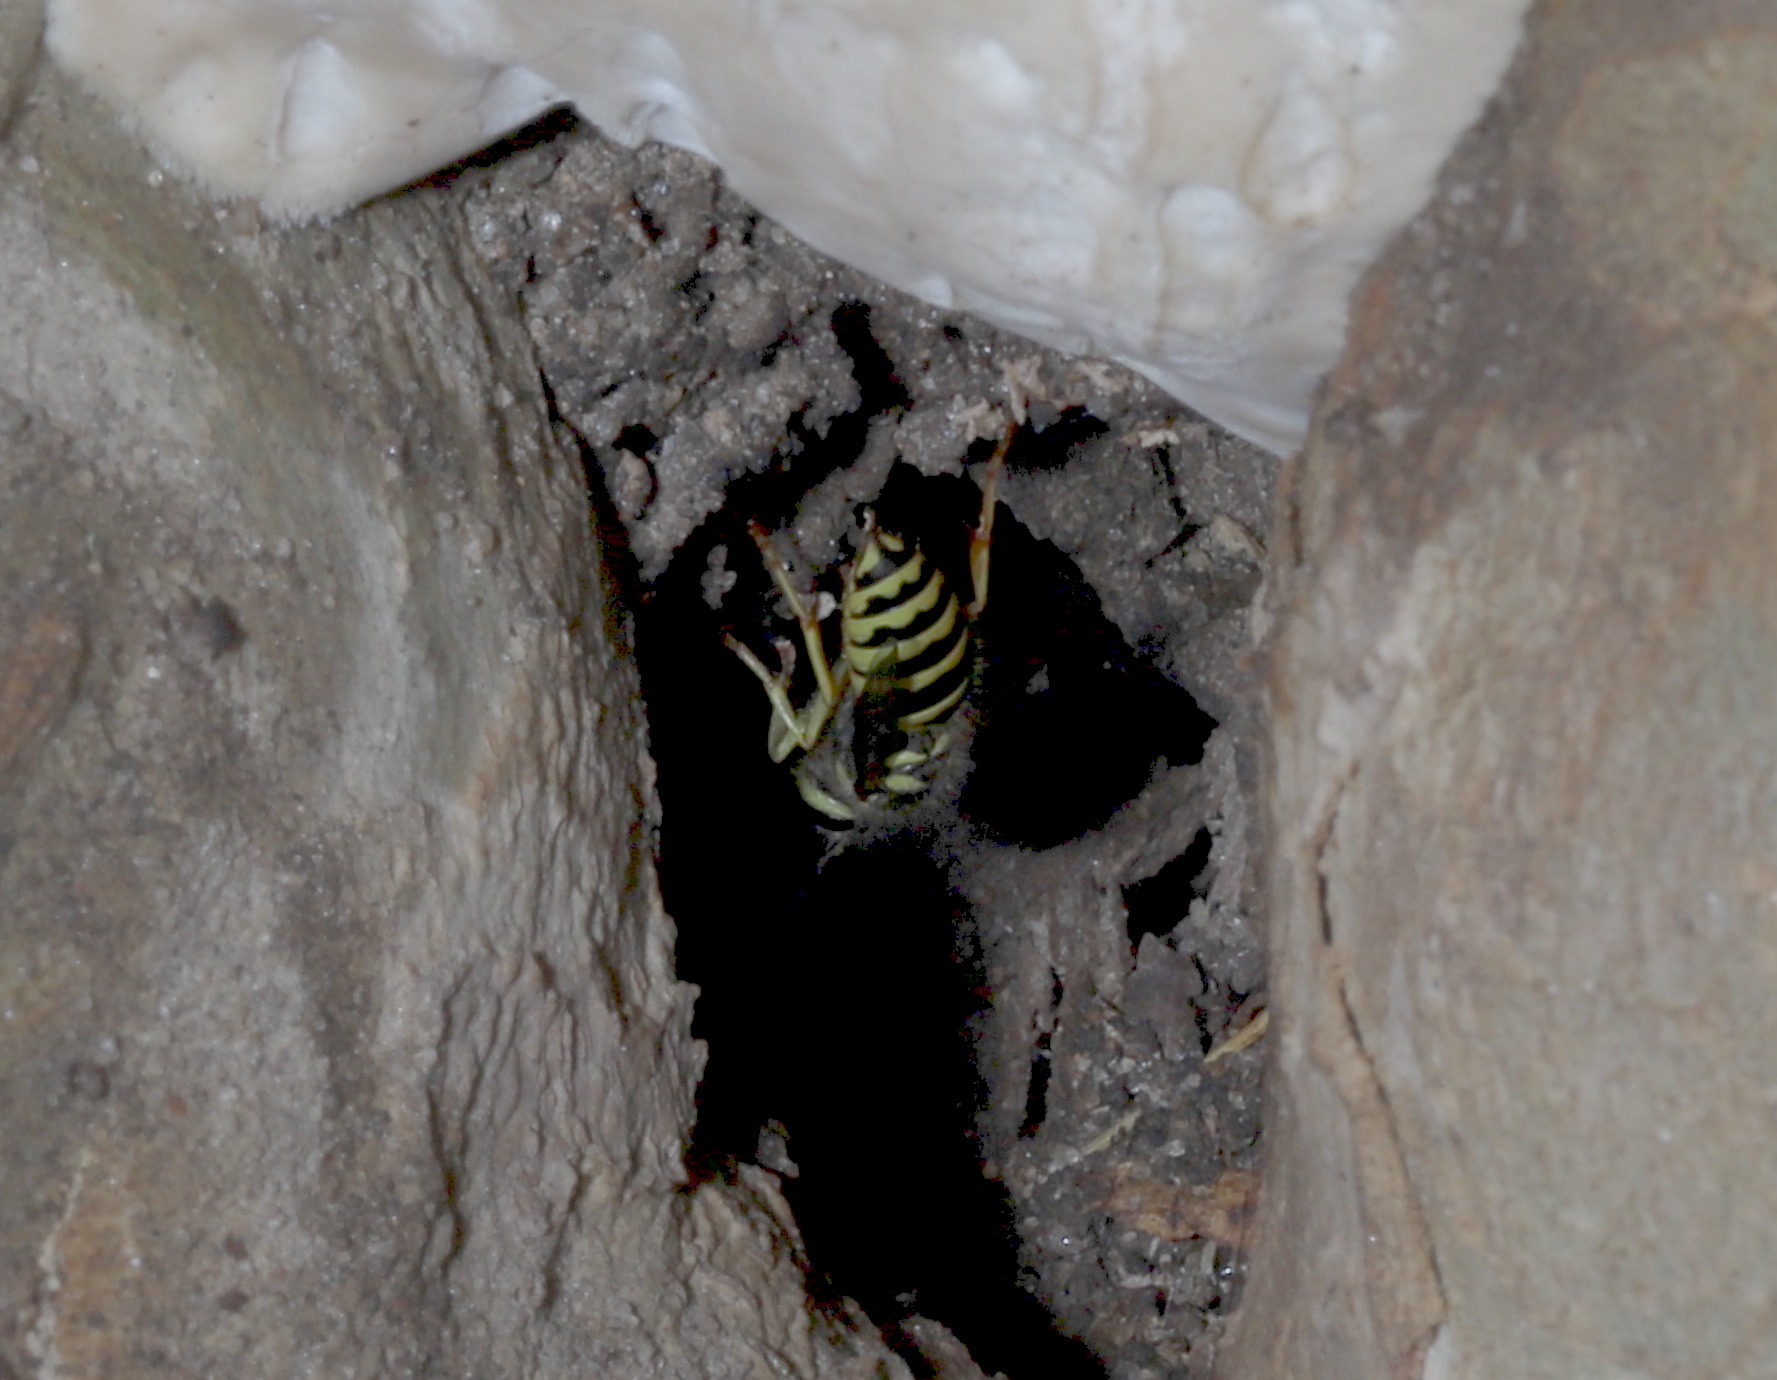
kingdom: Animalia
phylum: Arthropoda
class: Insecta
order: Hymenoptera
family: Vespidae
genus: Vespula
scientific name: Vespula maculifrons
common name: Eastern yellowjacket
